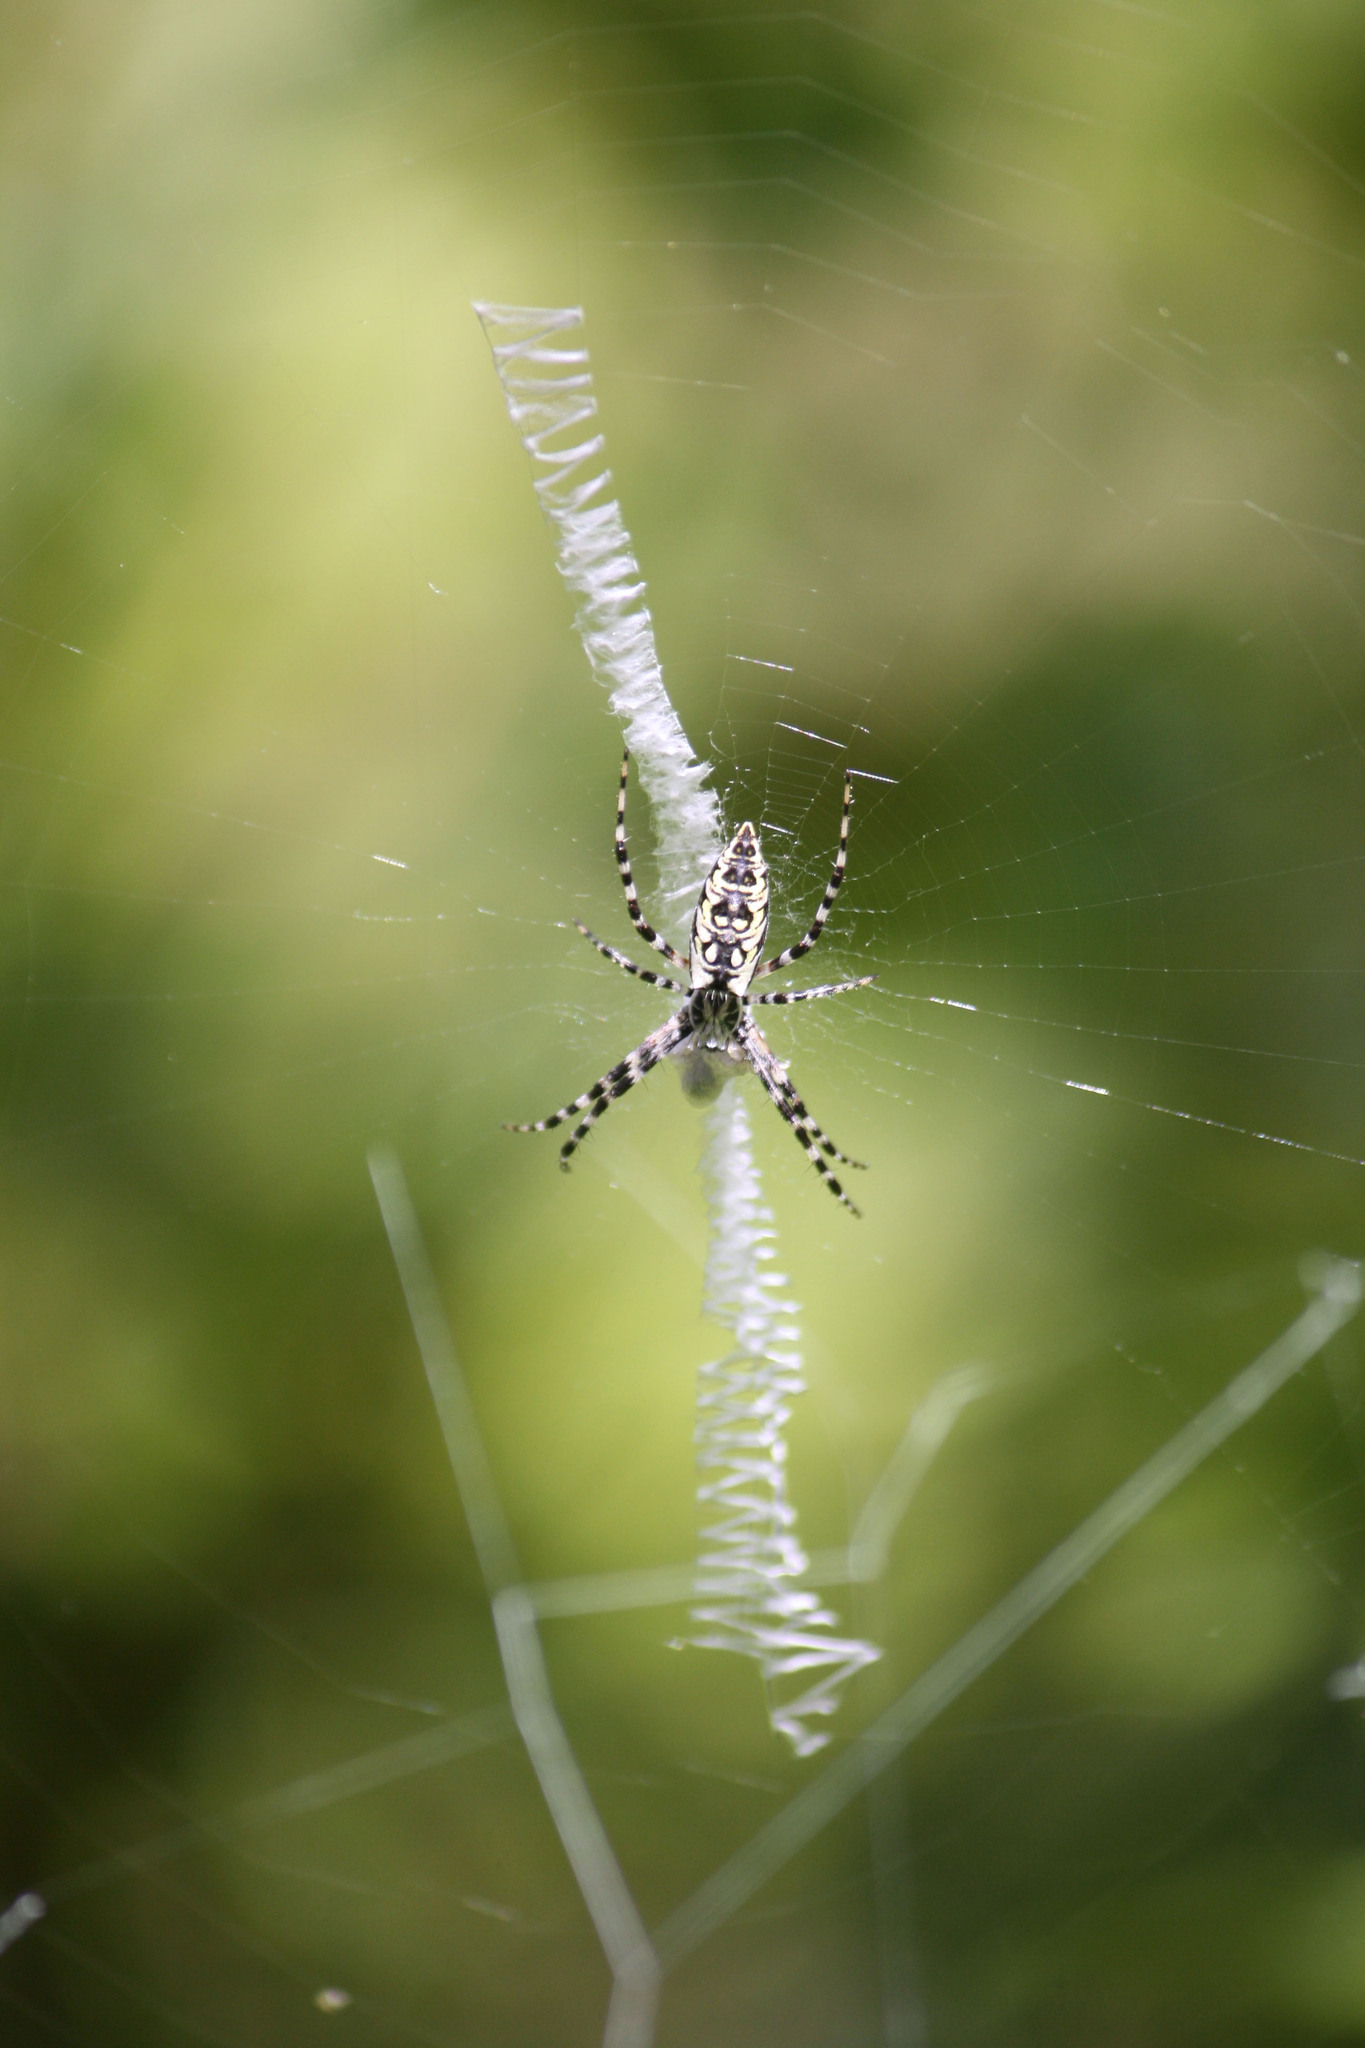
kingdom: Animalia
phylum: Arthropoda
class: Arachnida
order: Araneae
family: Araneidae
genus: Argiope
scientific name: Argiope aurantia
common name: Orb weavers
